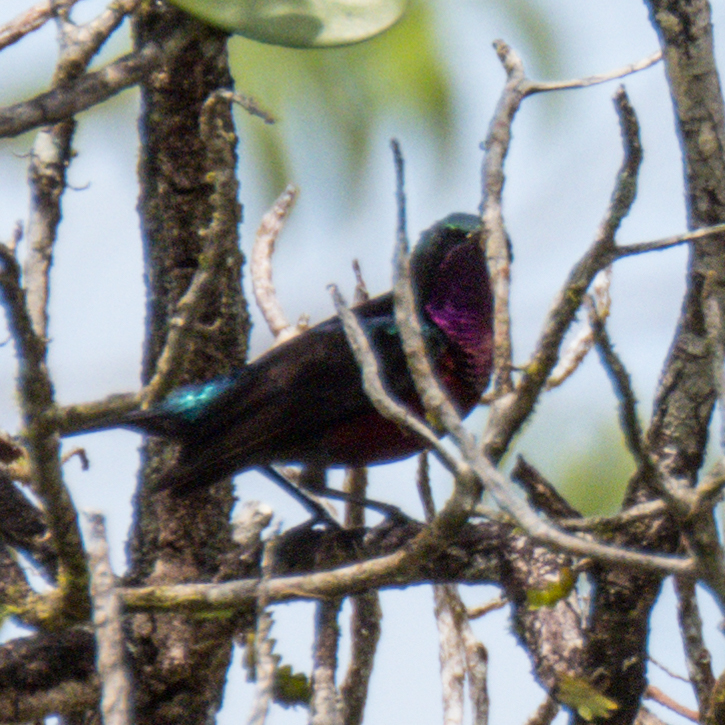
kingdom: Animalia
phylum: Chordata
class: Aves
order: Passeriformes
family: Nectariniidae
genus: Leptocoma
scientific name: Leptocoma brasiliana
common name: Van hasselt's sunbird
